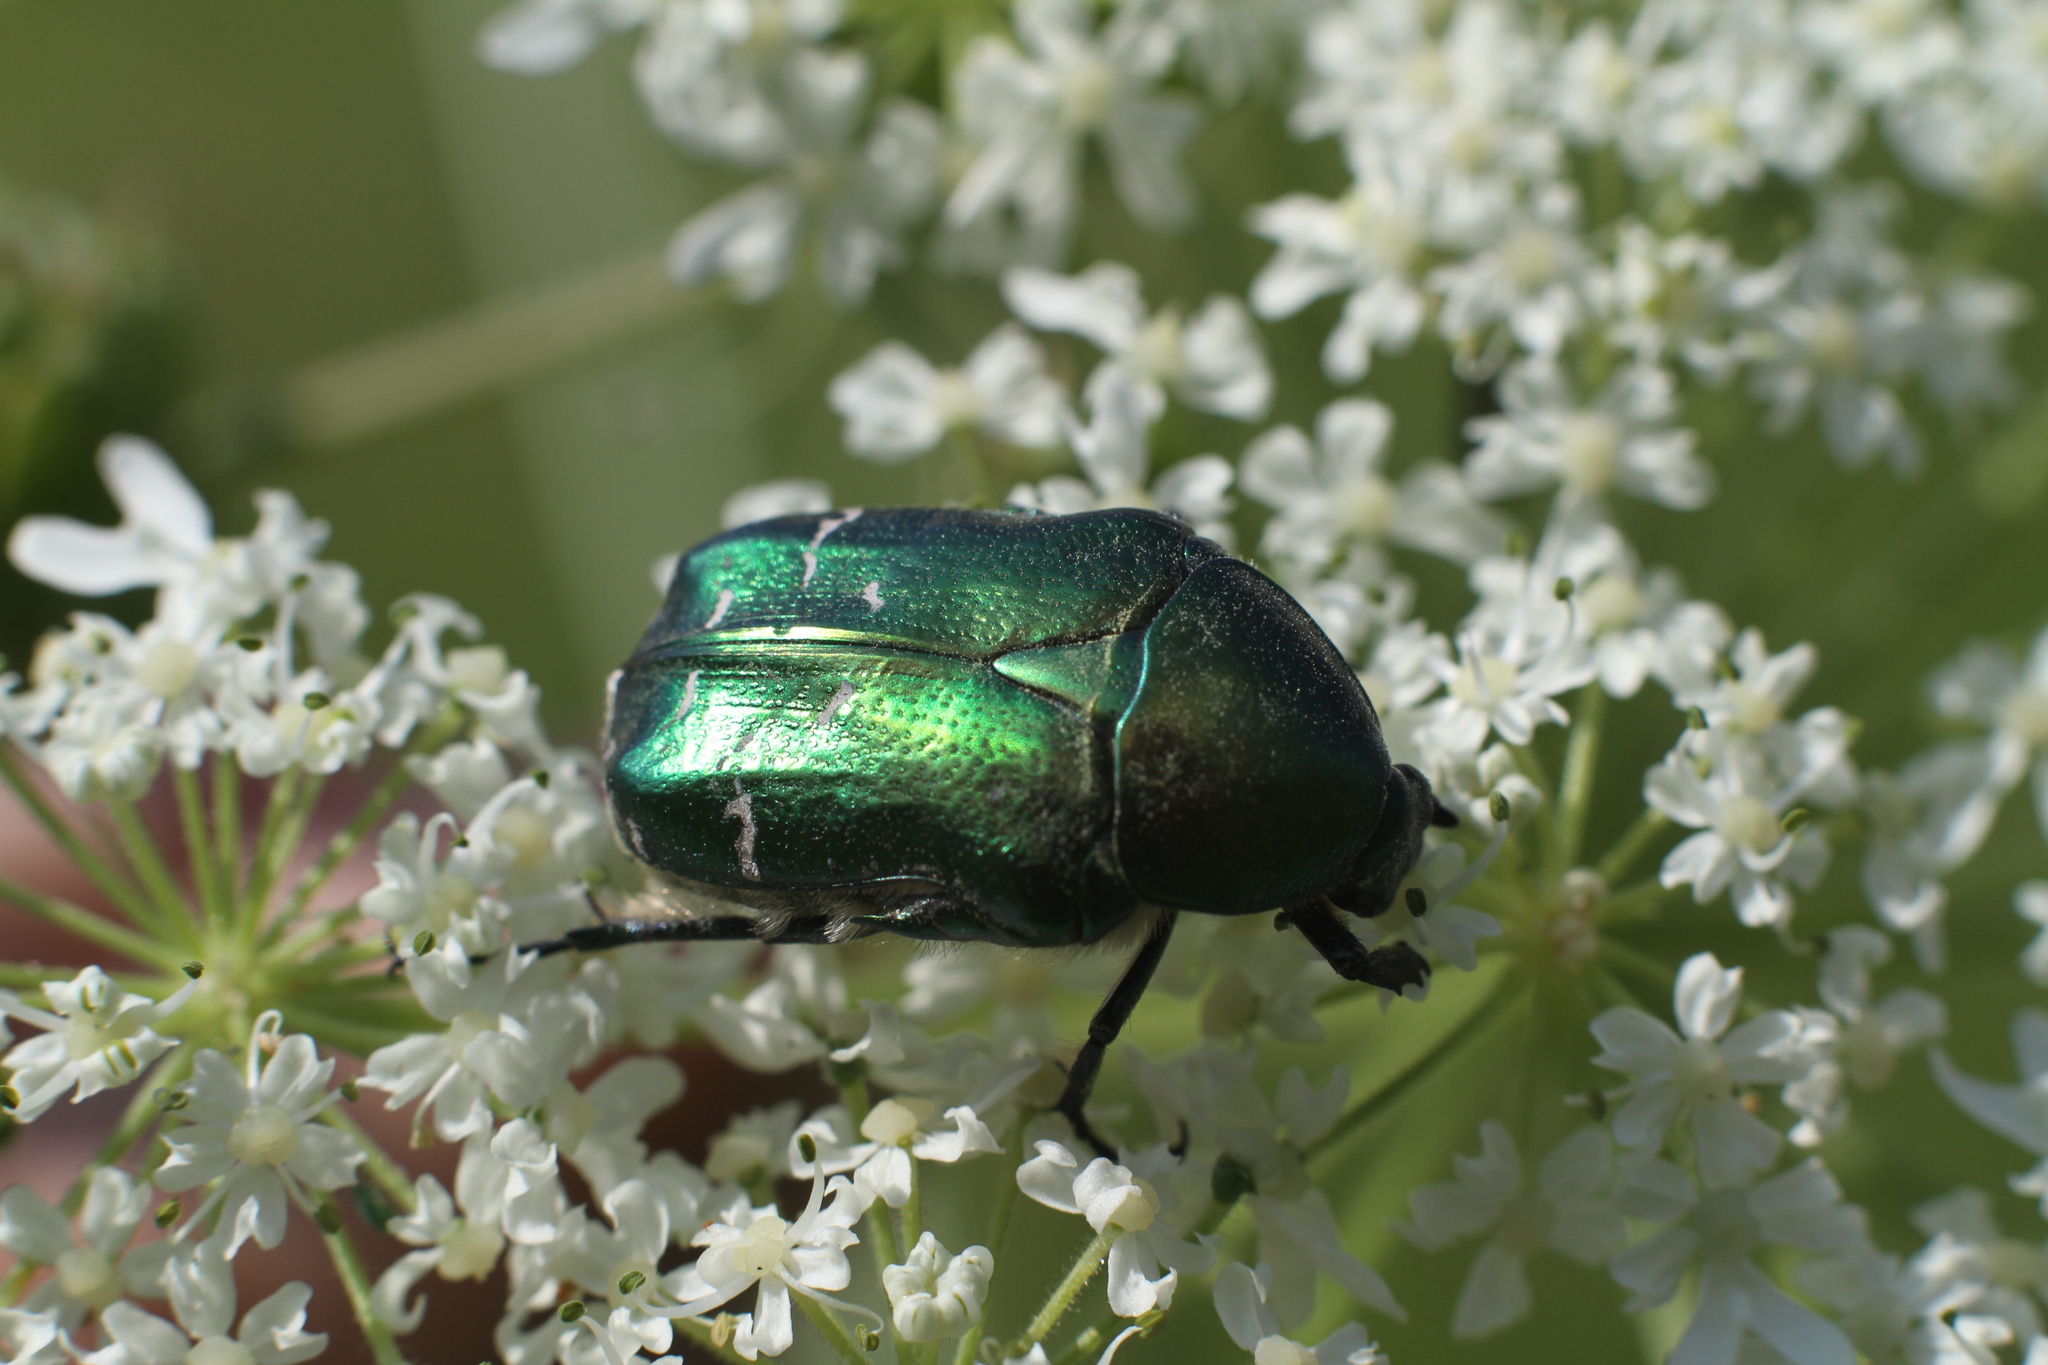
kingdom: Animalia
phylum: Arthropoda
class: Insecta
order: Coleoptera
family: Scarabaeidae
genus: Cetonia
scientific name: Cetonia aurata
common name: Rose chafer
